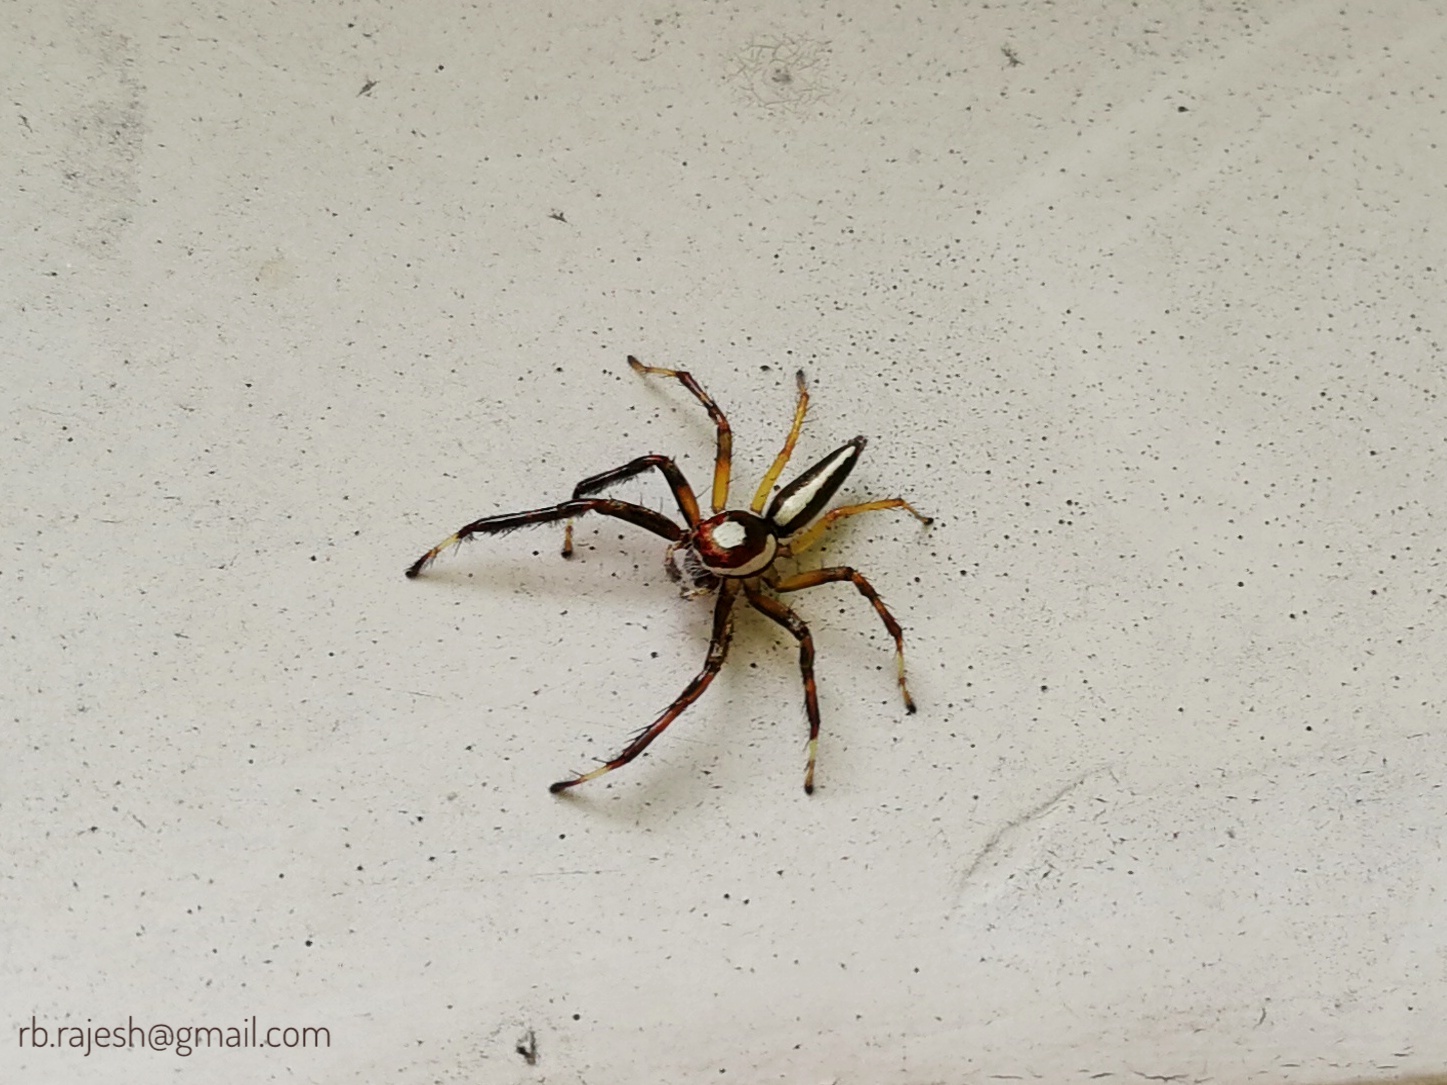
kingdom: Animalia
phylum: Arthropoda
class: Arachnida
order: Araneae
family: Salticidae
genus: Telamonia
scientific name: Telamonia dimidiata
